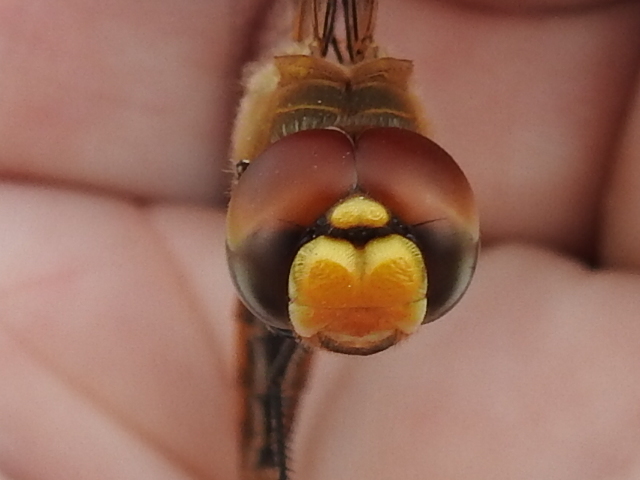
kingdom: Animalia
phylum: Arthropoda
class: Insecta
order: Odonata
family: Libellulidae
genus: Pantala
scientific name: Pantala flavescens
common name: Wandering glider
